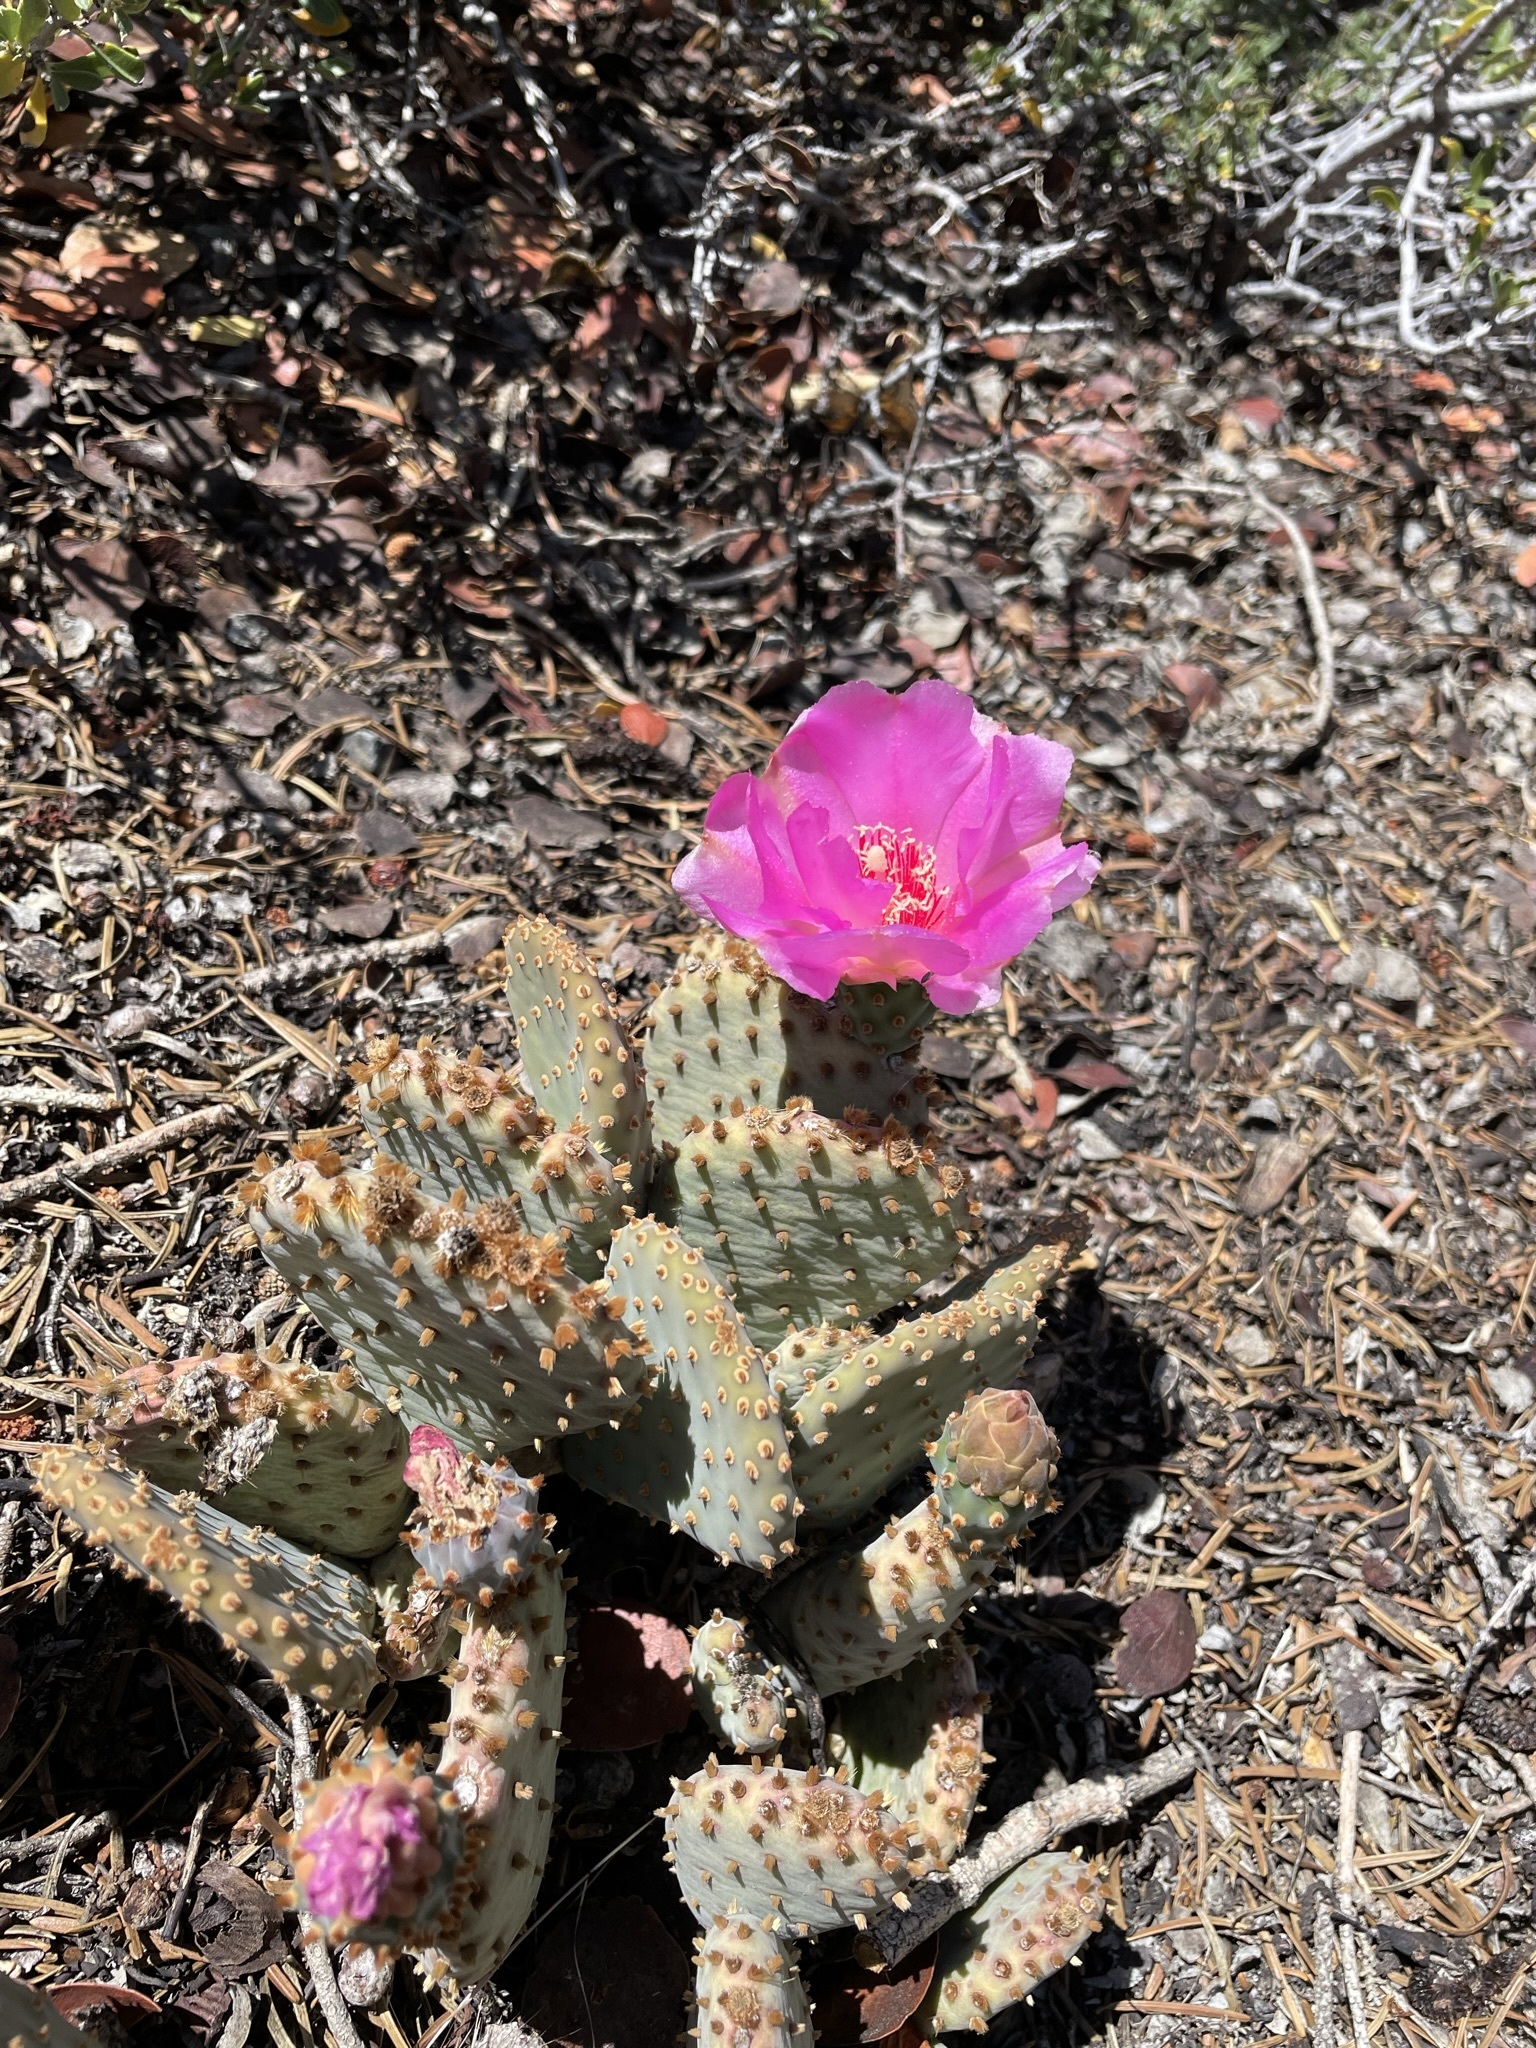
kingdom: Plantae
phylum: Tracheophyta
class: Magnoliopsida
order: Caryophyllales
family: Cactaceae
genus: Opuntia
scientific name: Opuntia basilaris
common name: Beavertail prickly-pear
